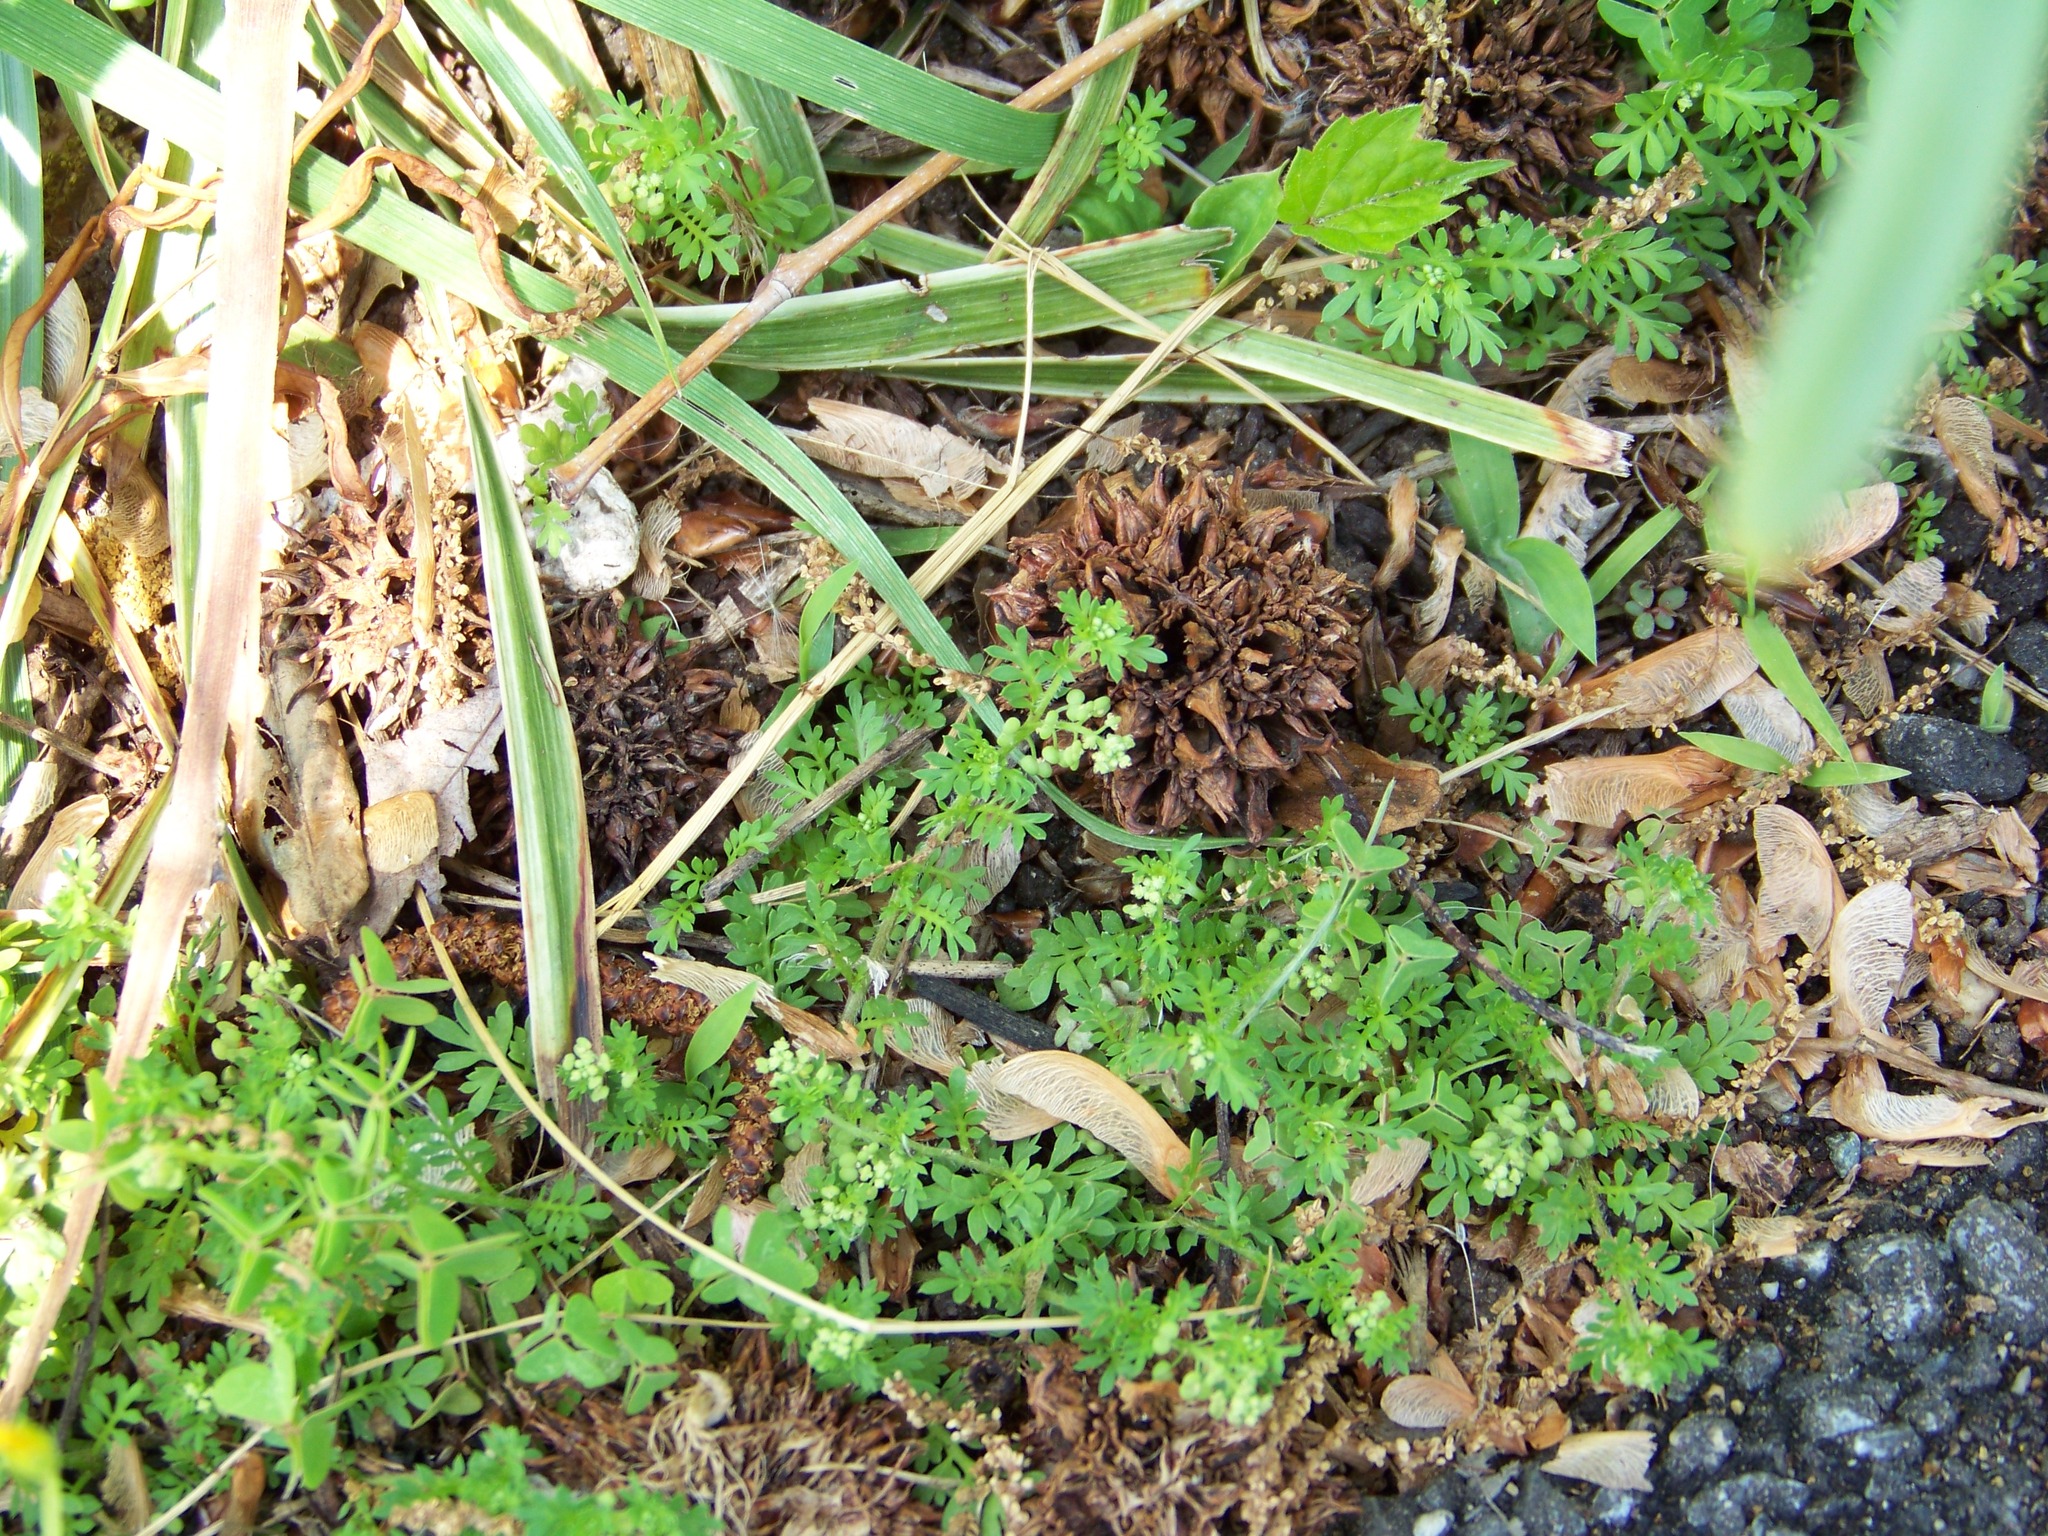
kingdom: Plantae
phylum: Tracheophyta
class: Magnoliopsida
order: Brassicales
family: Brassicaceae
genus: Lepidium
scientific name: Lepidium didymum
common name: Lesser swinecress
